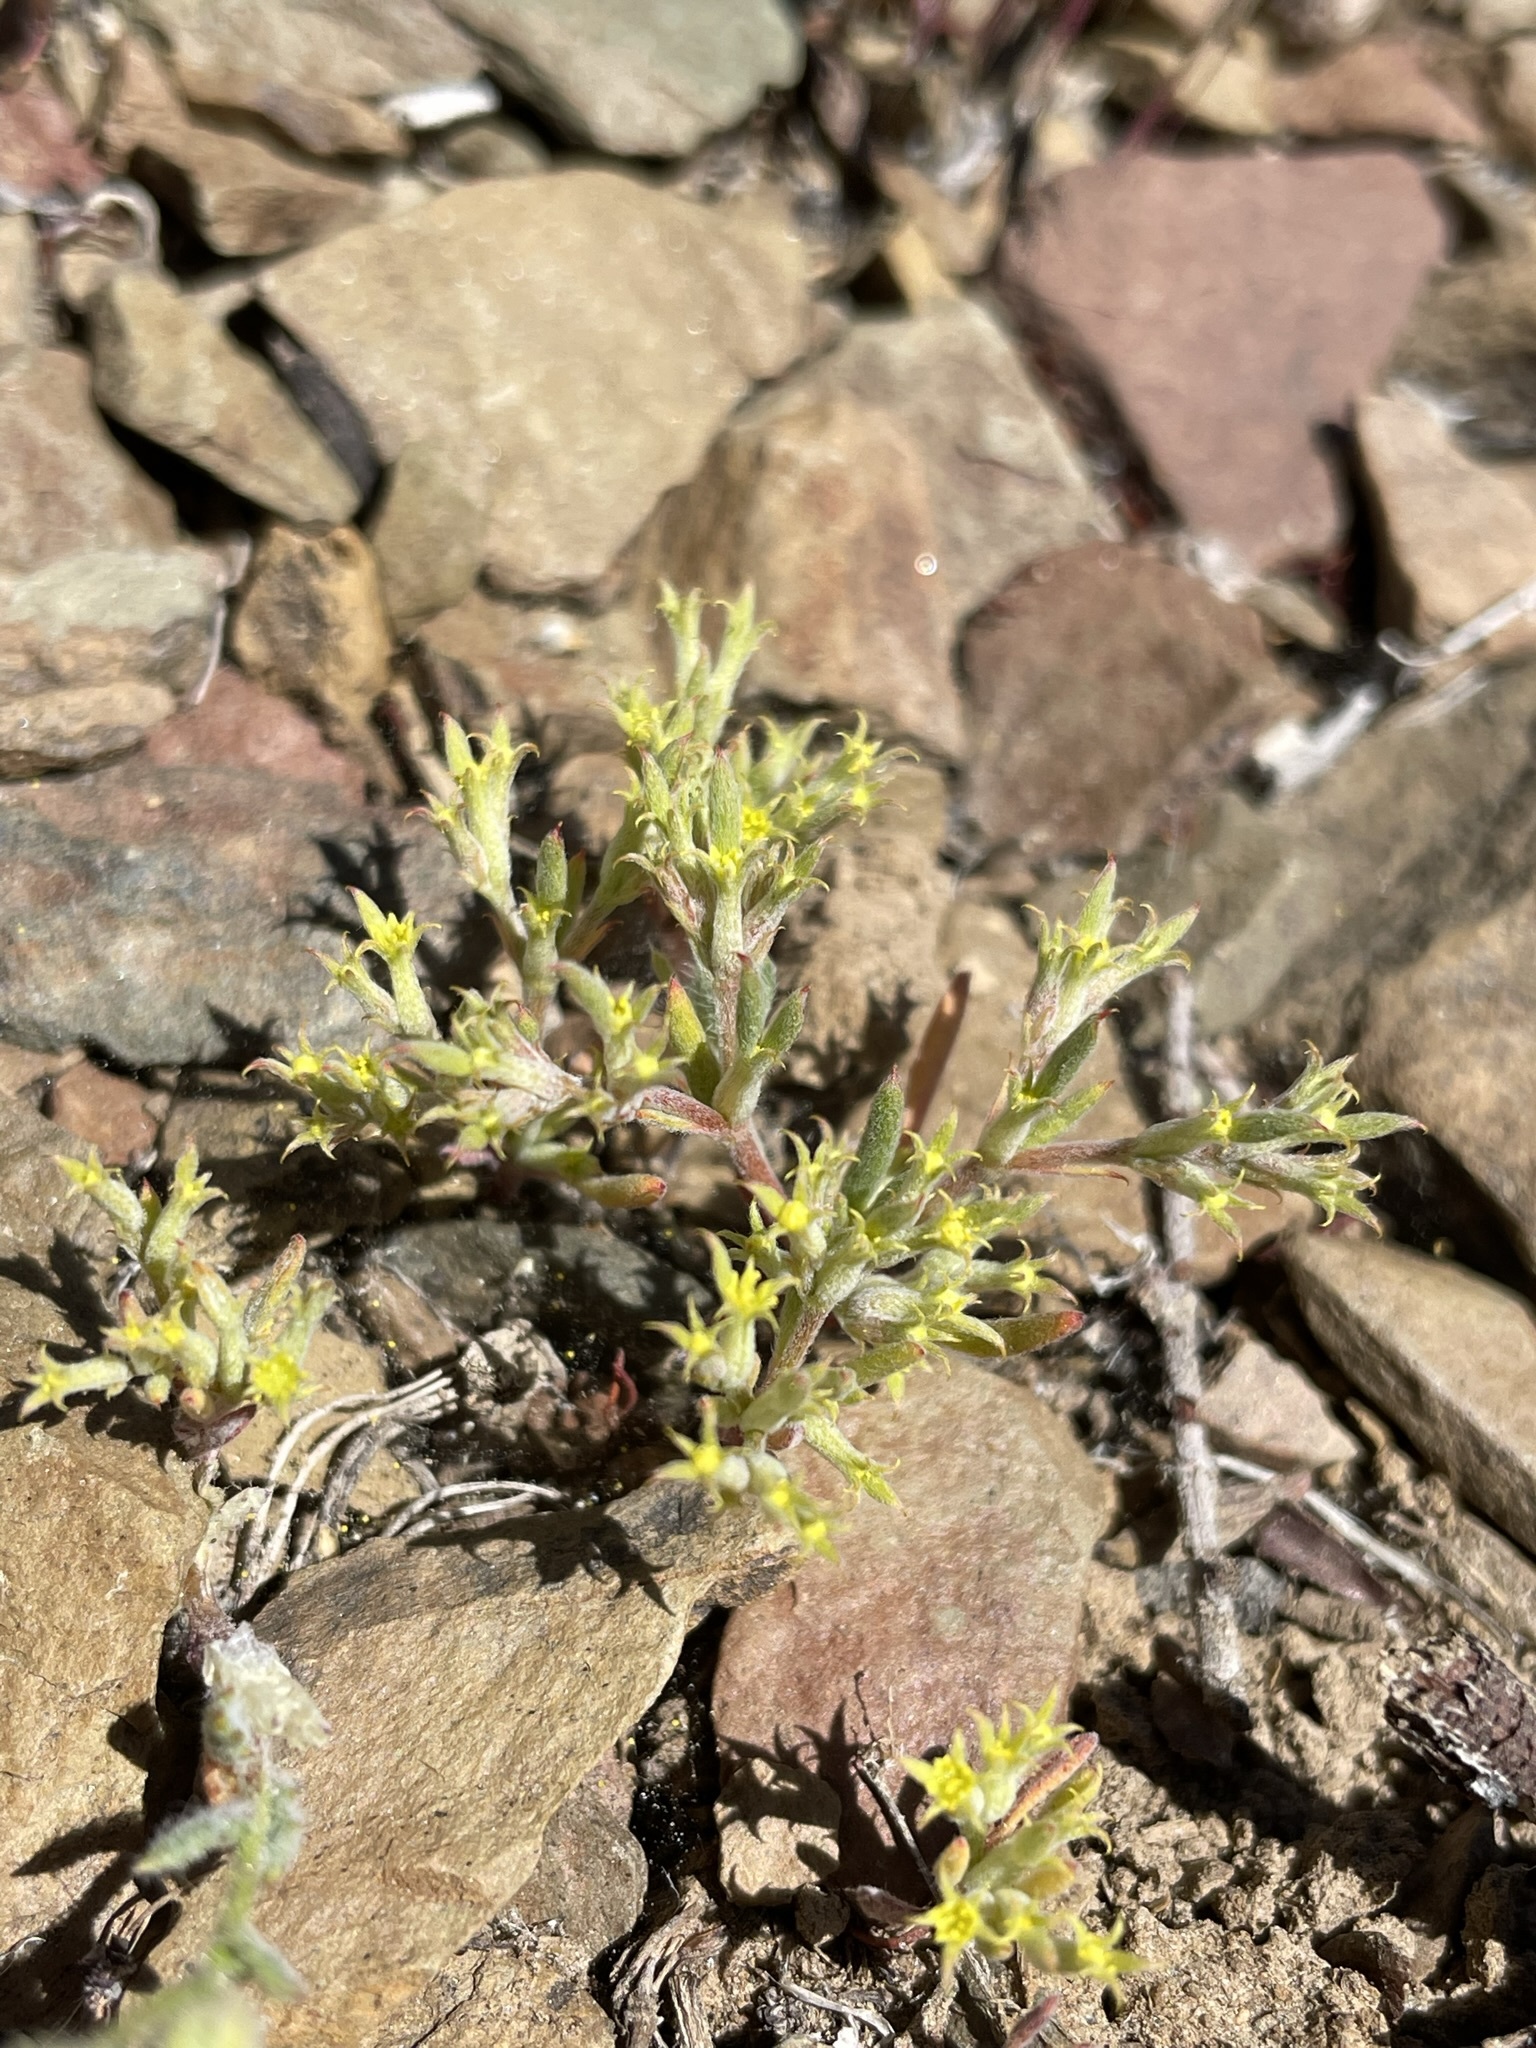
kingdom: Plantae
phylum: Tracheophyta
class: Magnoliopsida
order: Caryophyllales
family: Polygonaceae
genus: Chorizanthe
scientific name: Chorizanthe watsonii
